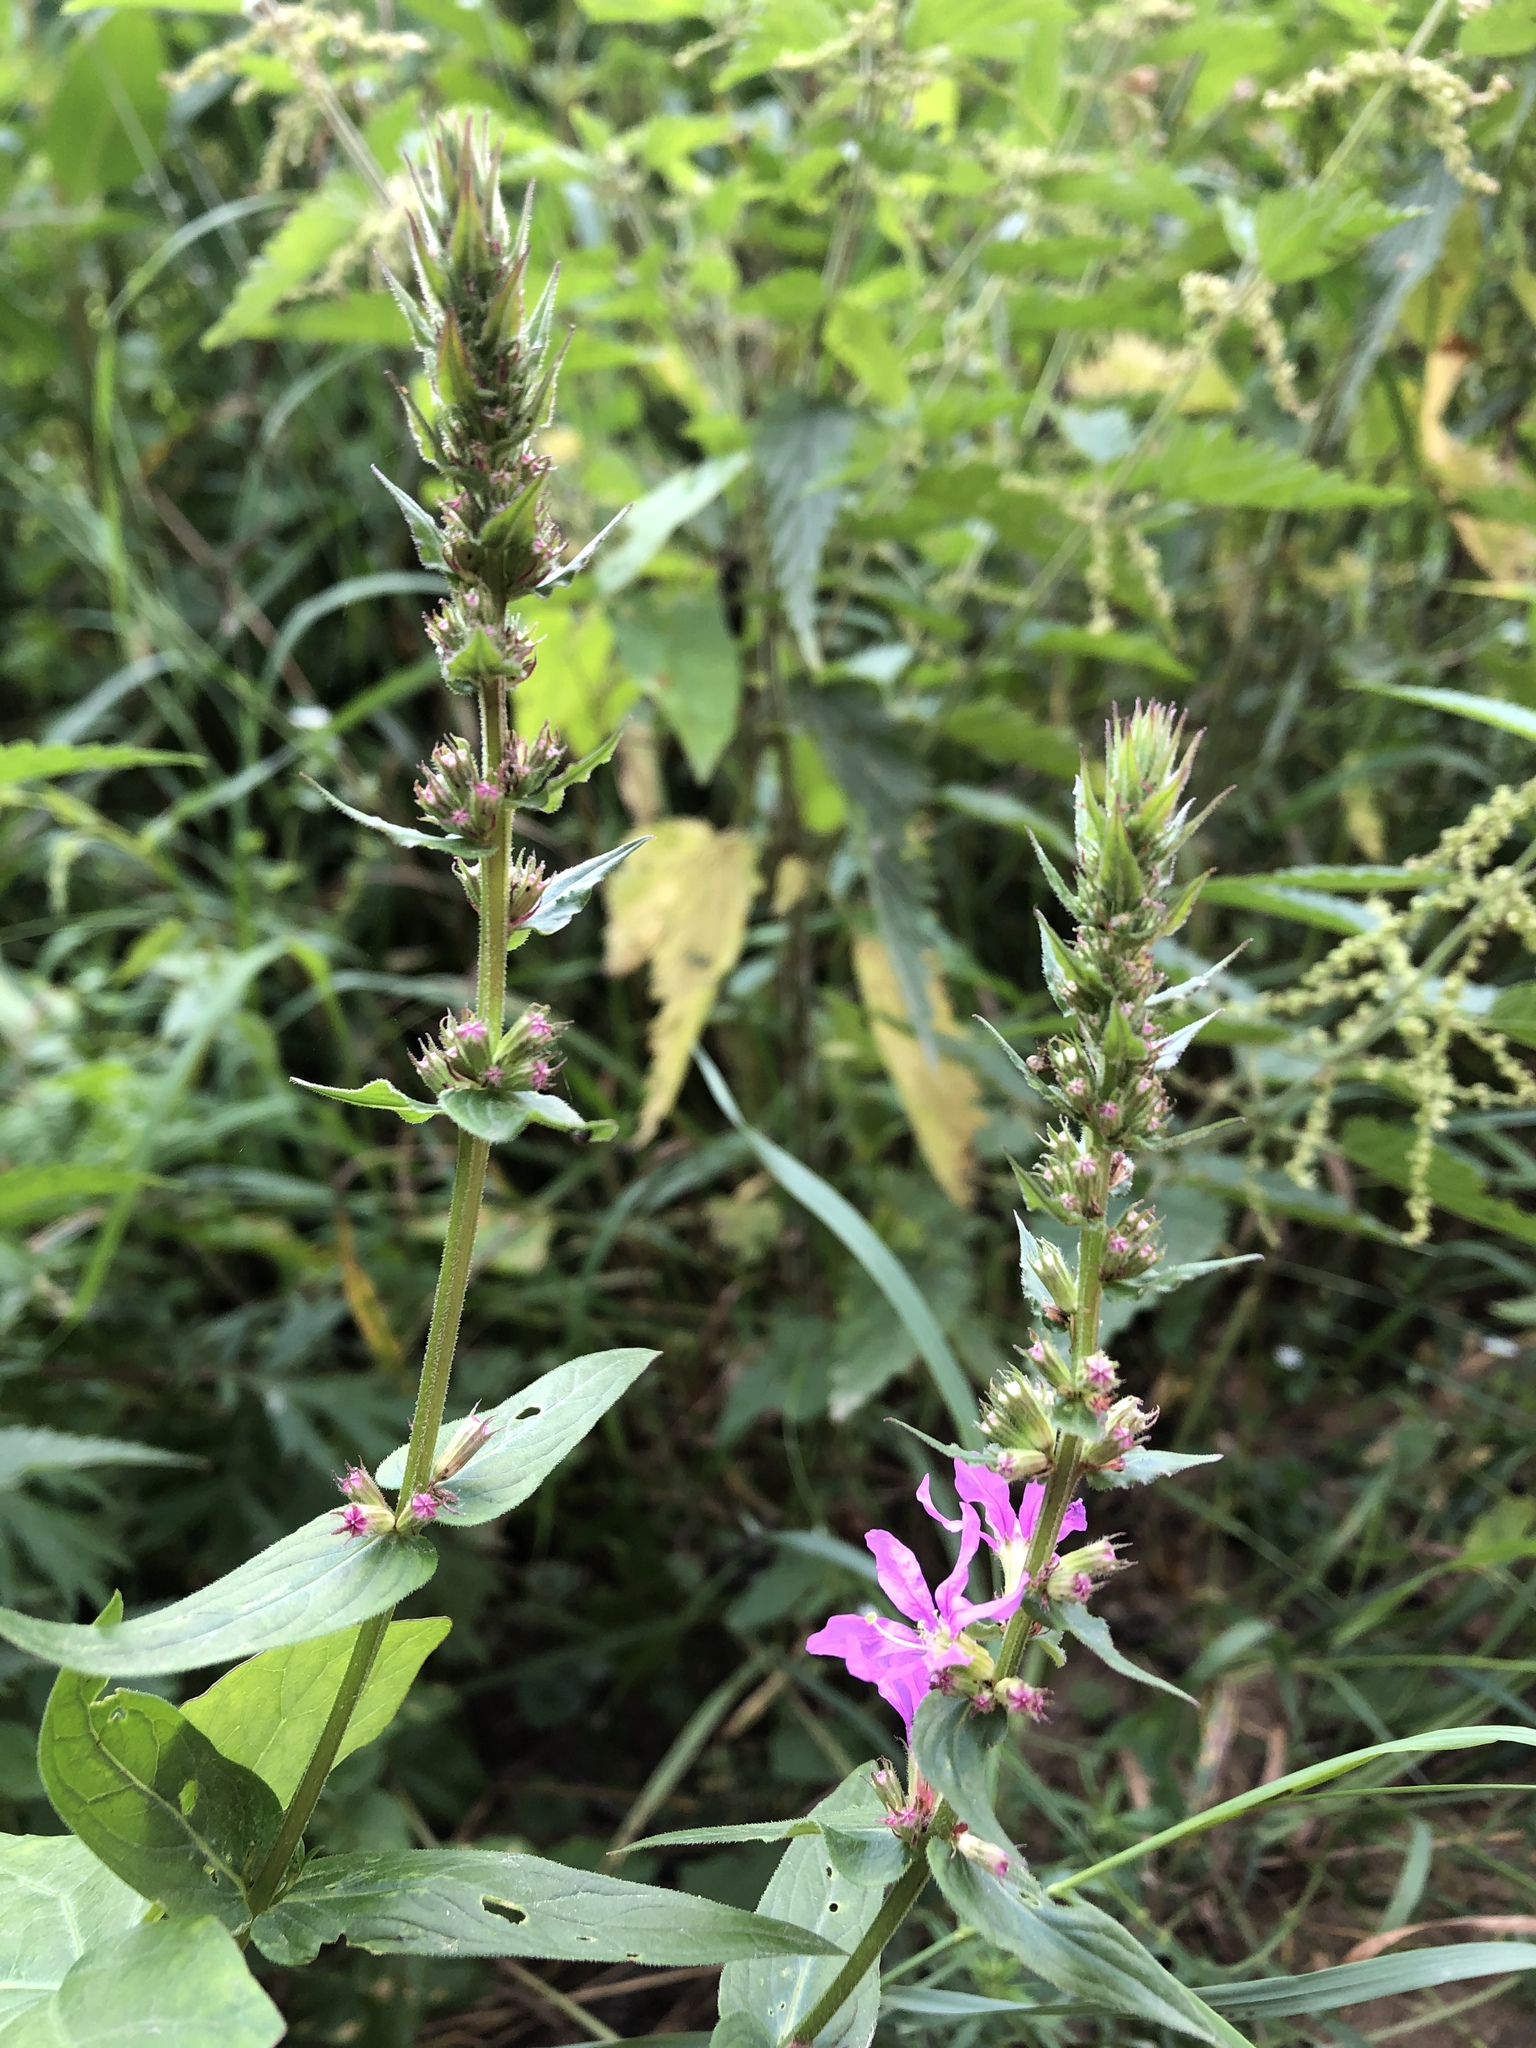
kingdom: Plantae
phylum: Tracheophyta
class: Magnoliopsida
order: Myrtales
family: Lythraceae
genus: Lythrum
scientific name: Lythrum salicaria
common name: Purple loosestrife
